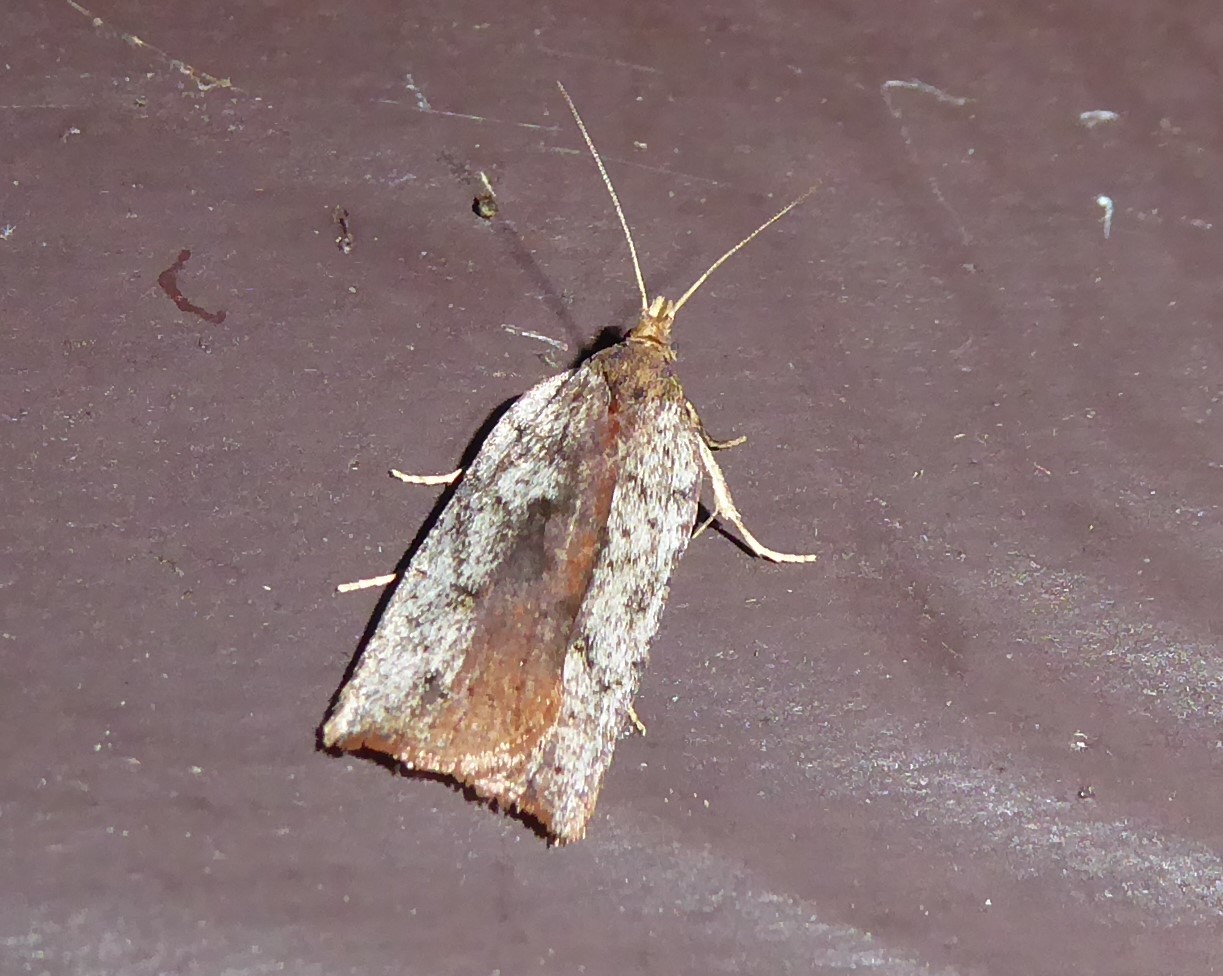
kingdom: Animalia
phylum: Arthropoda
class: Insecta
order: Lepidoptera
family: Tortricidae
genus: Planotortrix
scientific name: Planotortrix notophaea
